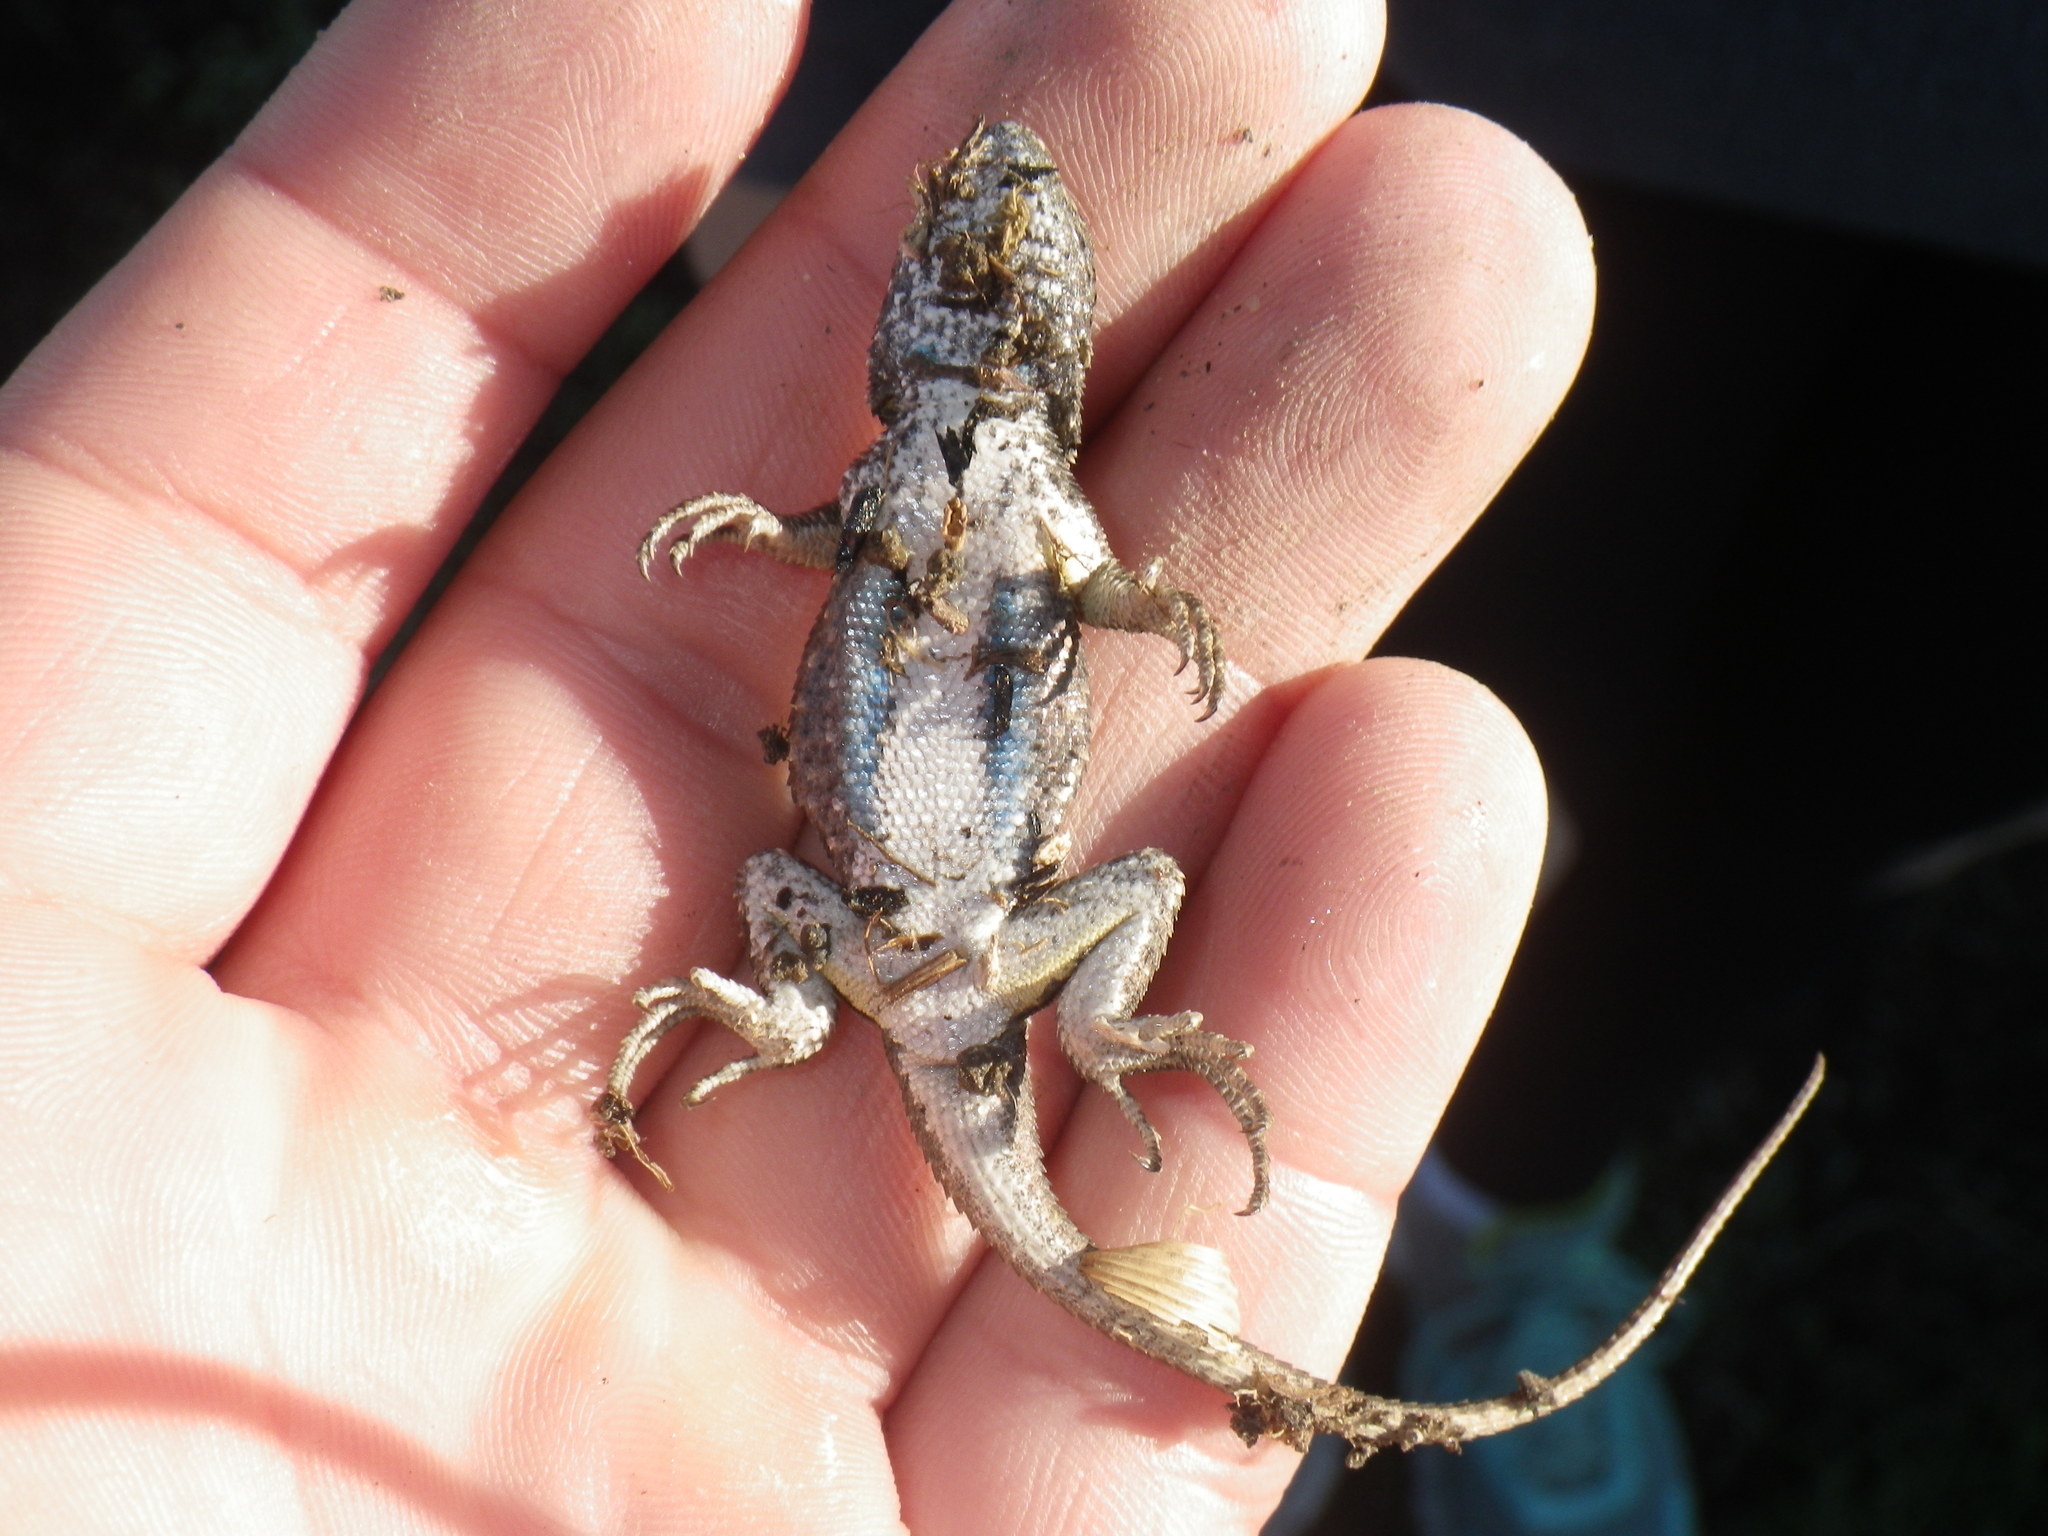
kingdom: Animalia
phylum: Chordata
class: Squamata
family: Phrynosomatidae
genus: Sceloporus
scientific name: Sceloporus occidentalis
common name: Western fence lizard
